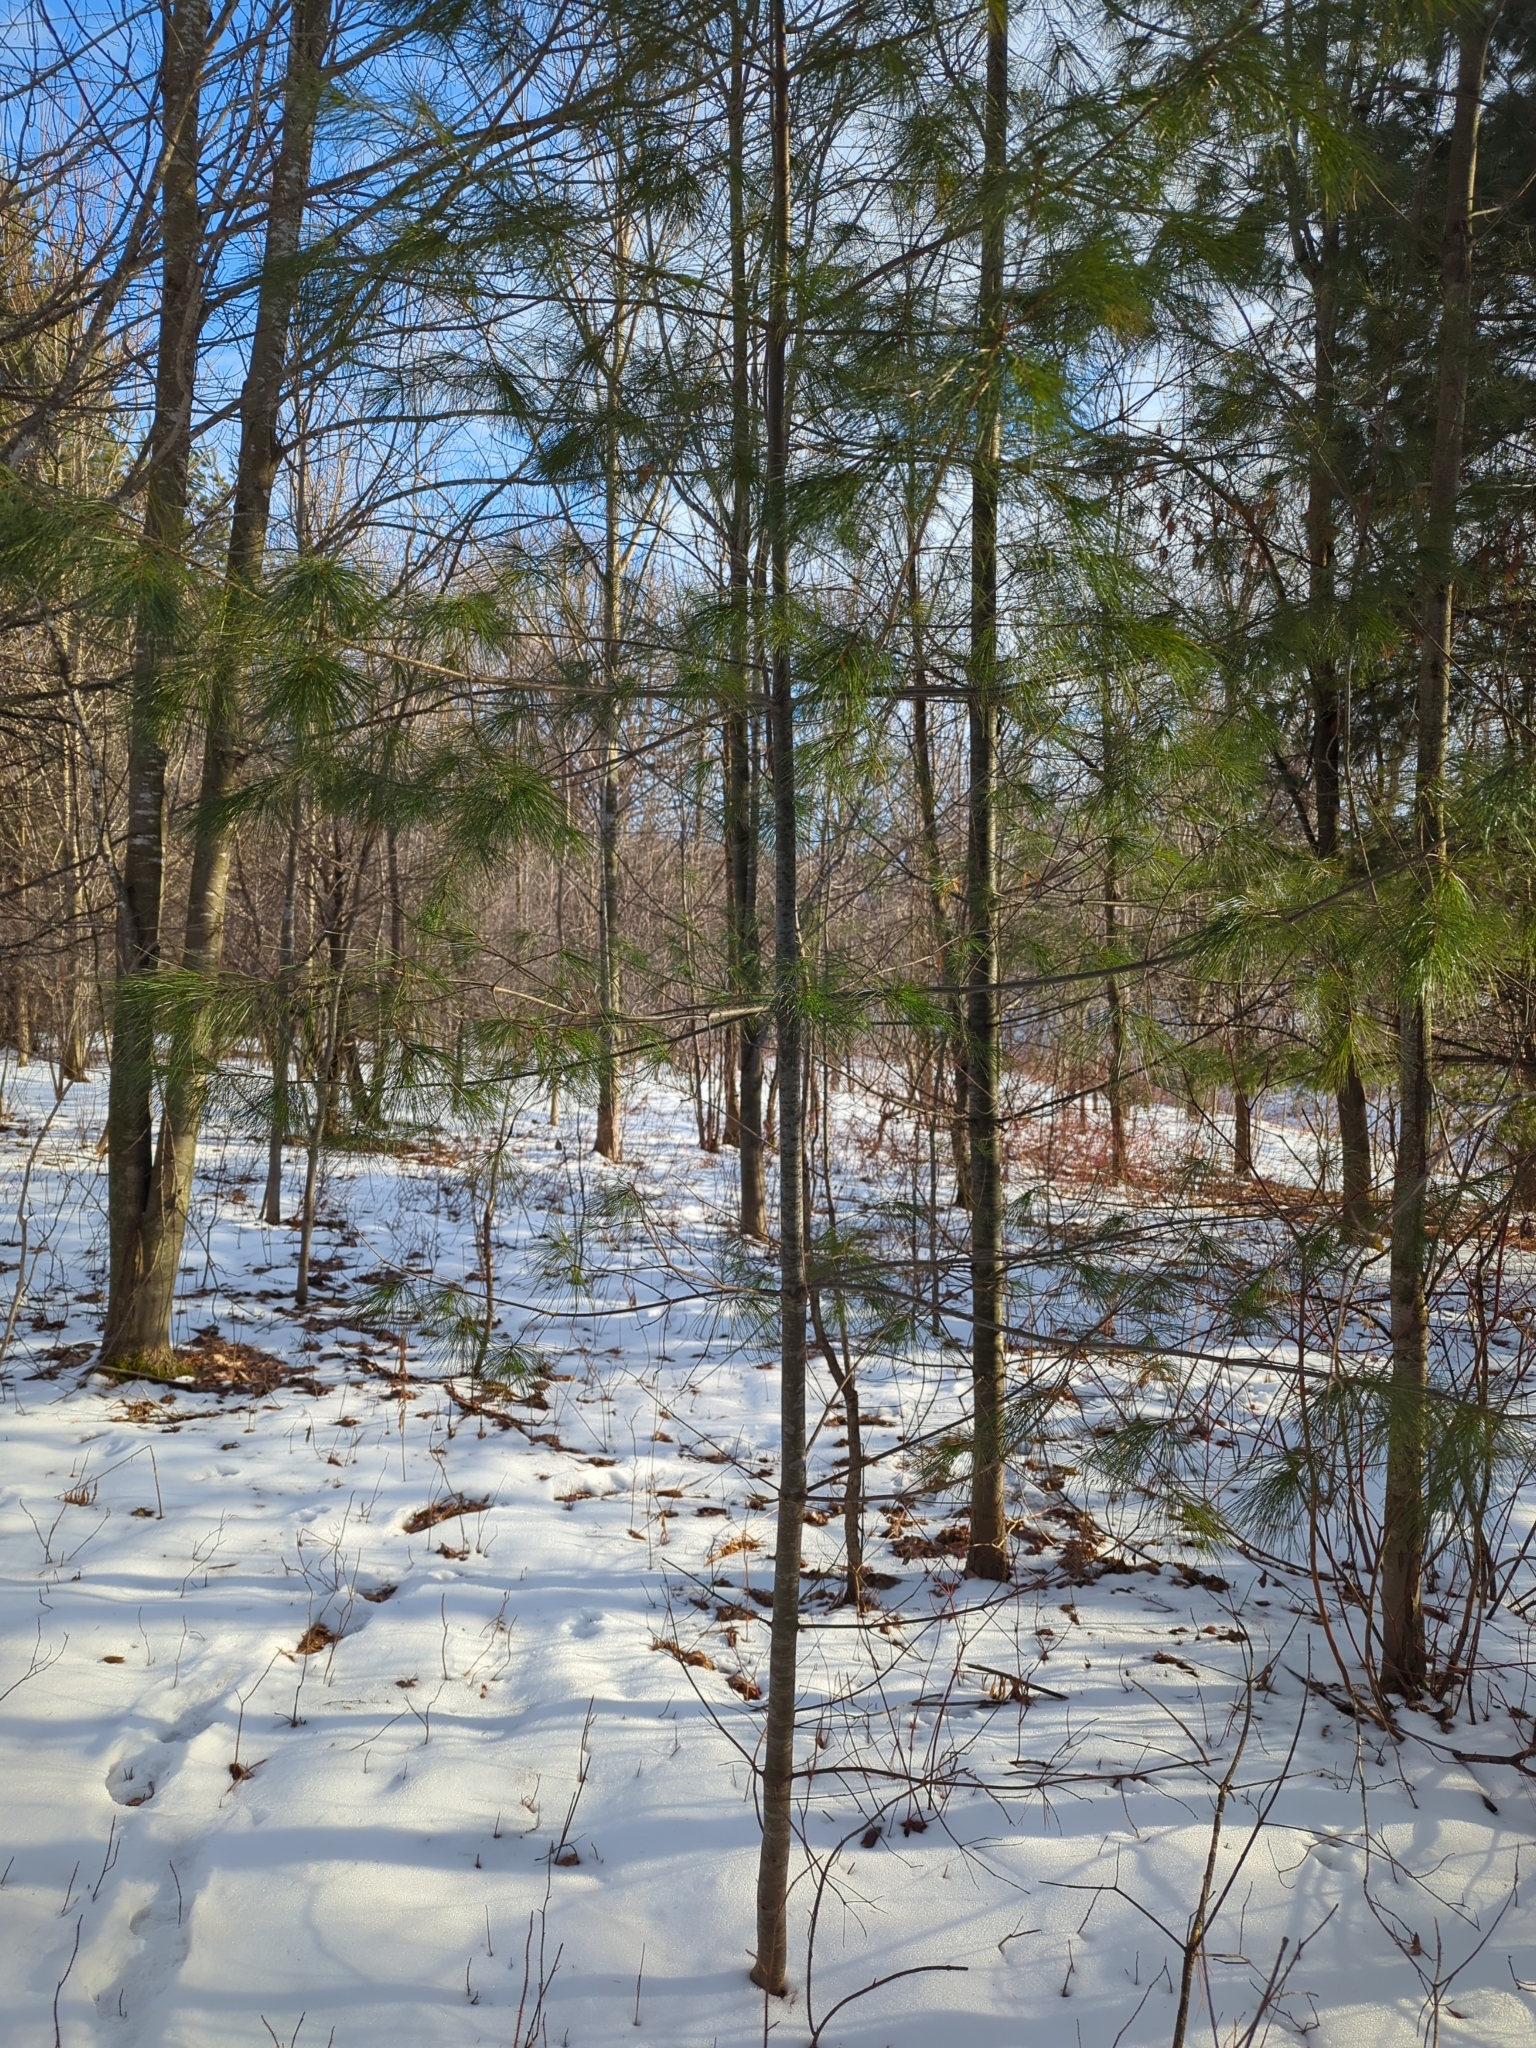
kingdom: Plantae
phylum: Tracheophyta
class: Pinopsida
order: Pinales
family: Pinaceae
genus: Pinus
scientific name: Pinus strobus
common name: Weymouth pine
